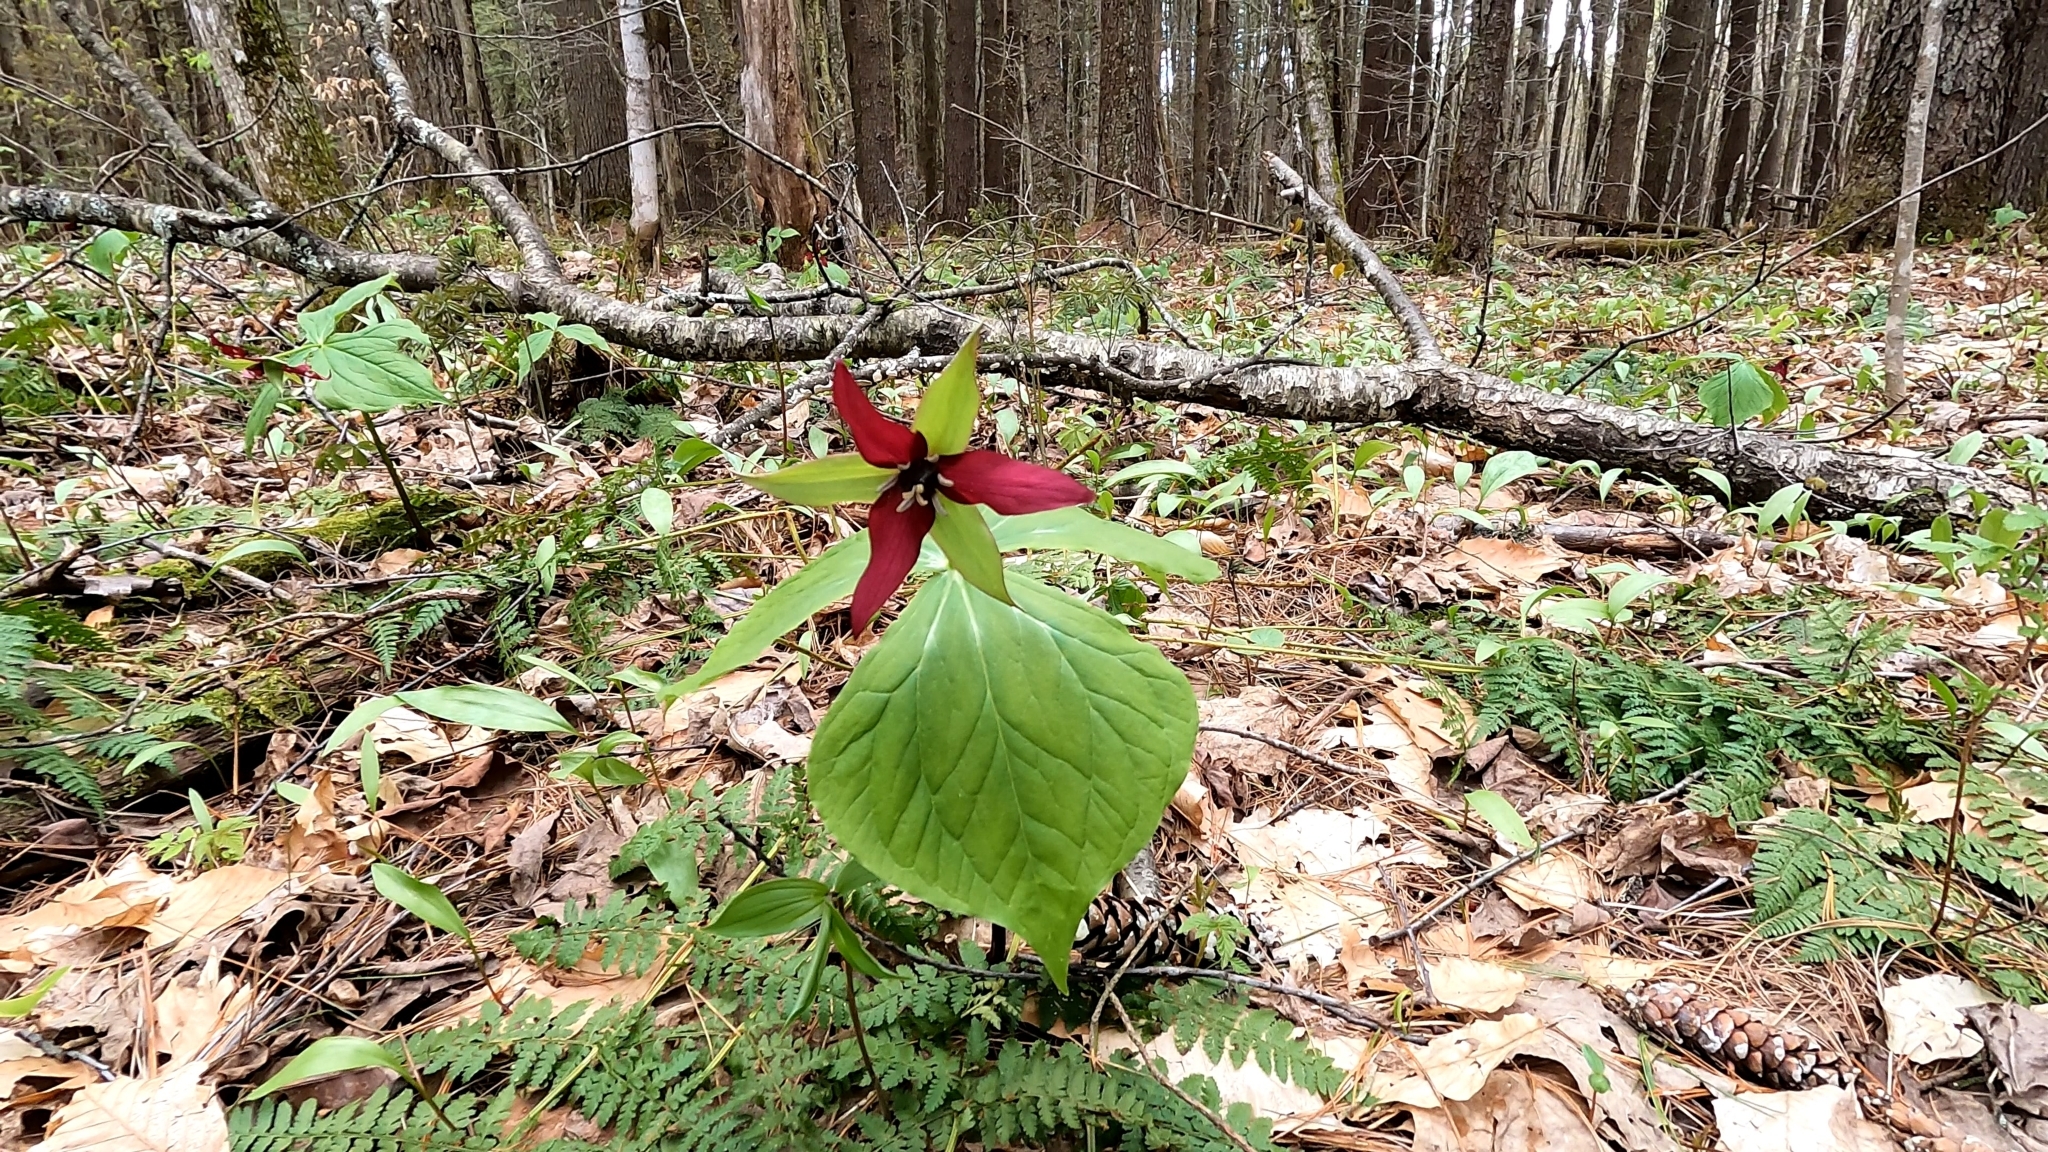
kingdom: Plantae
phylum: Tracheophyta
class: Liliopsida
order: Liliales
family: Melanthiaceae
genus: Trillium
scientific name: Trillium erectum
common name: Purple trillium
